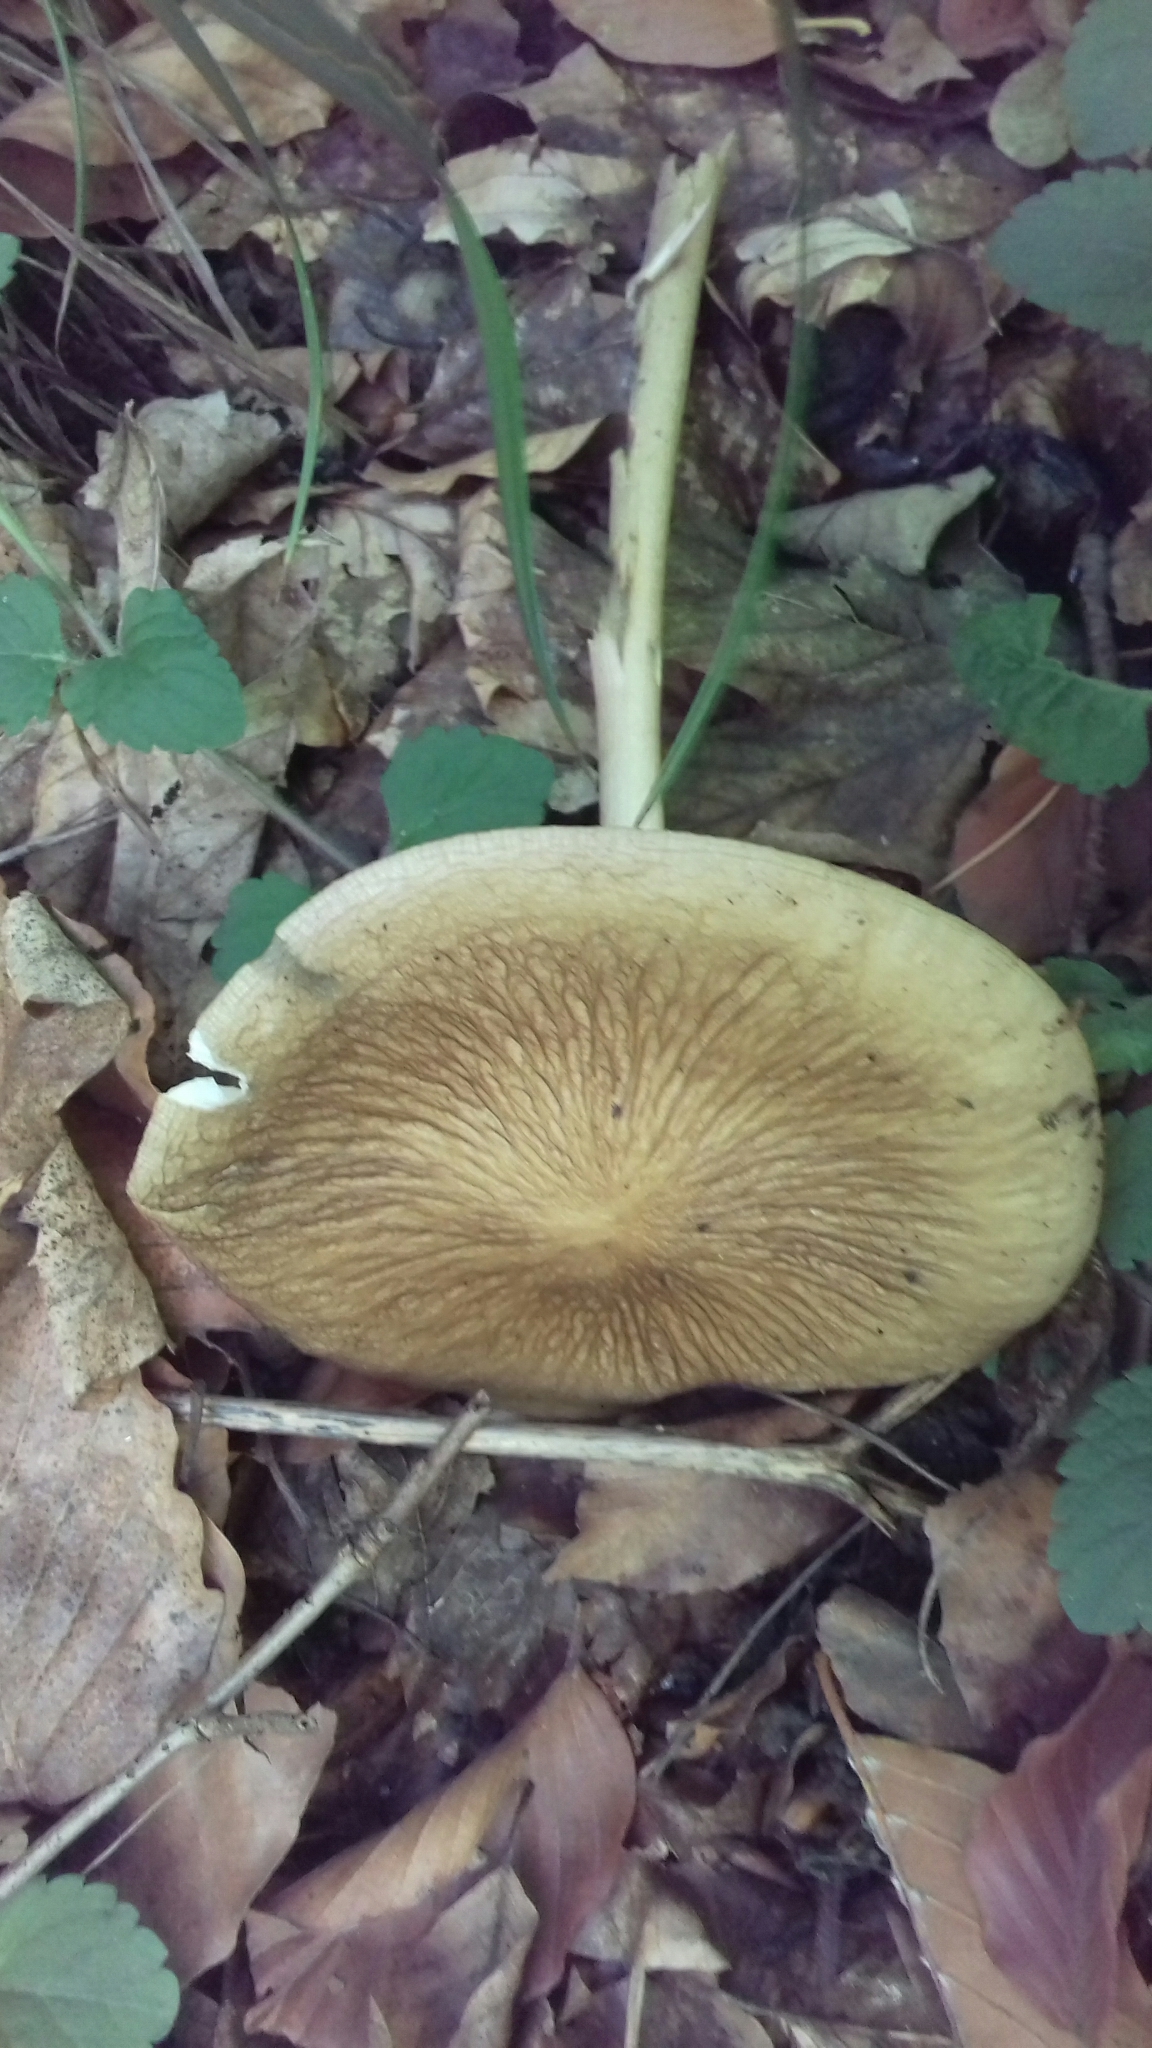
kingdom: Fungi
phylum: Basidiomycota
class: Agaricomycetes
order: Agaricales
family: Physalacriaceae
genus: Hymenopellis
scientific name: Hymenopellis radicata
